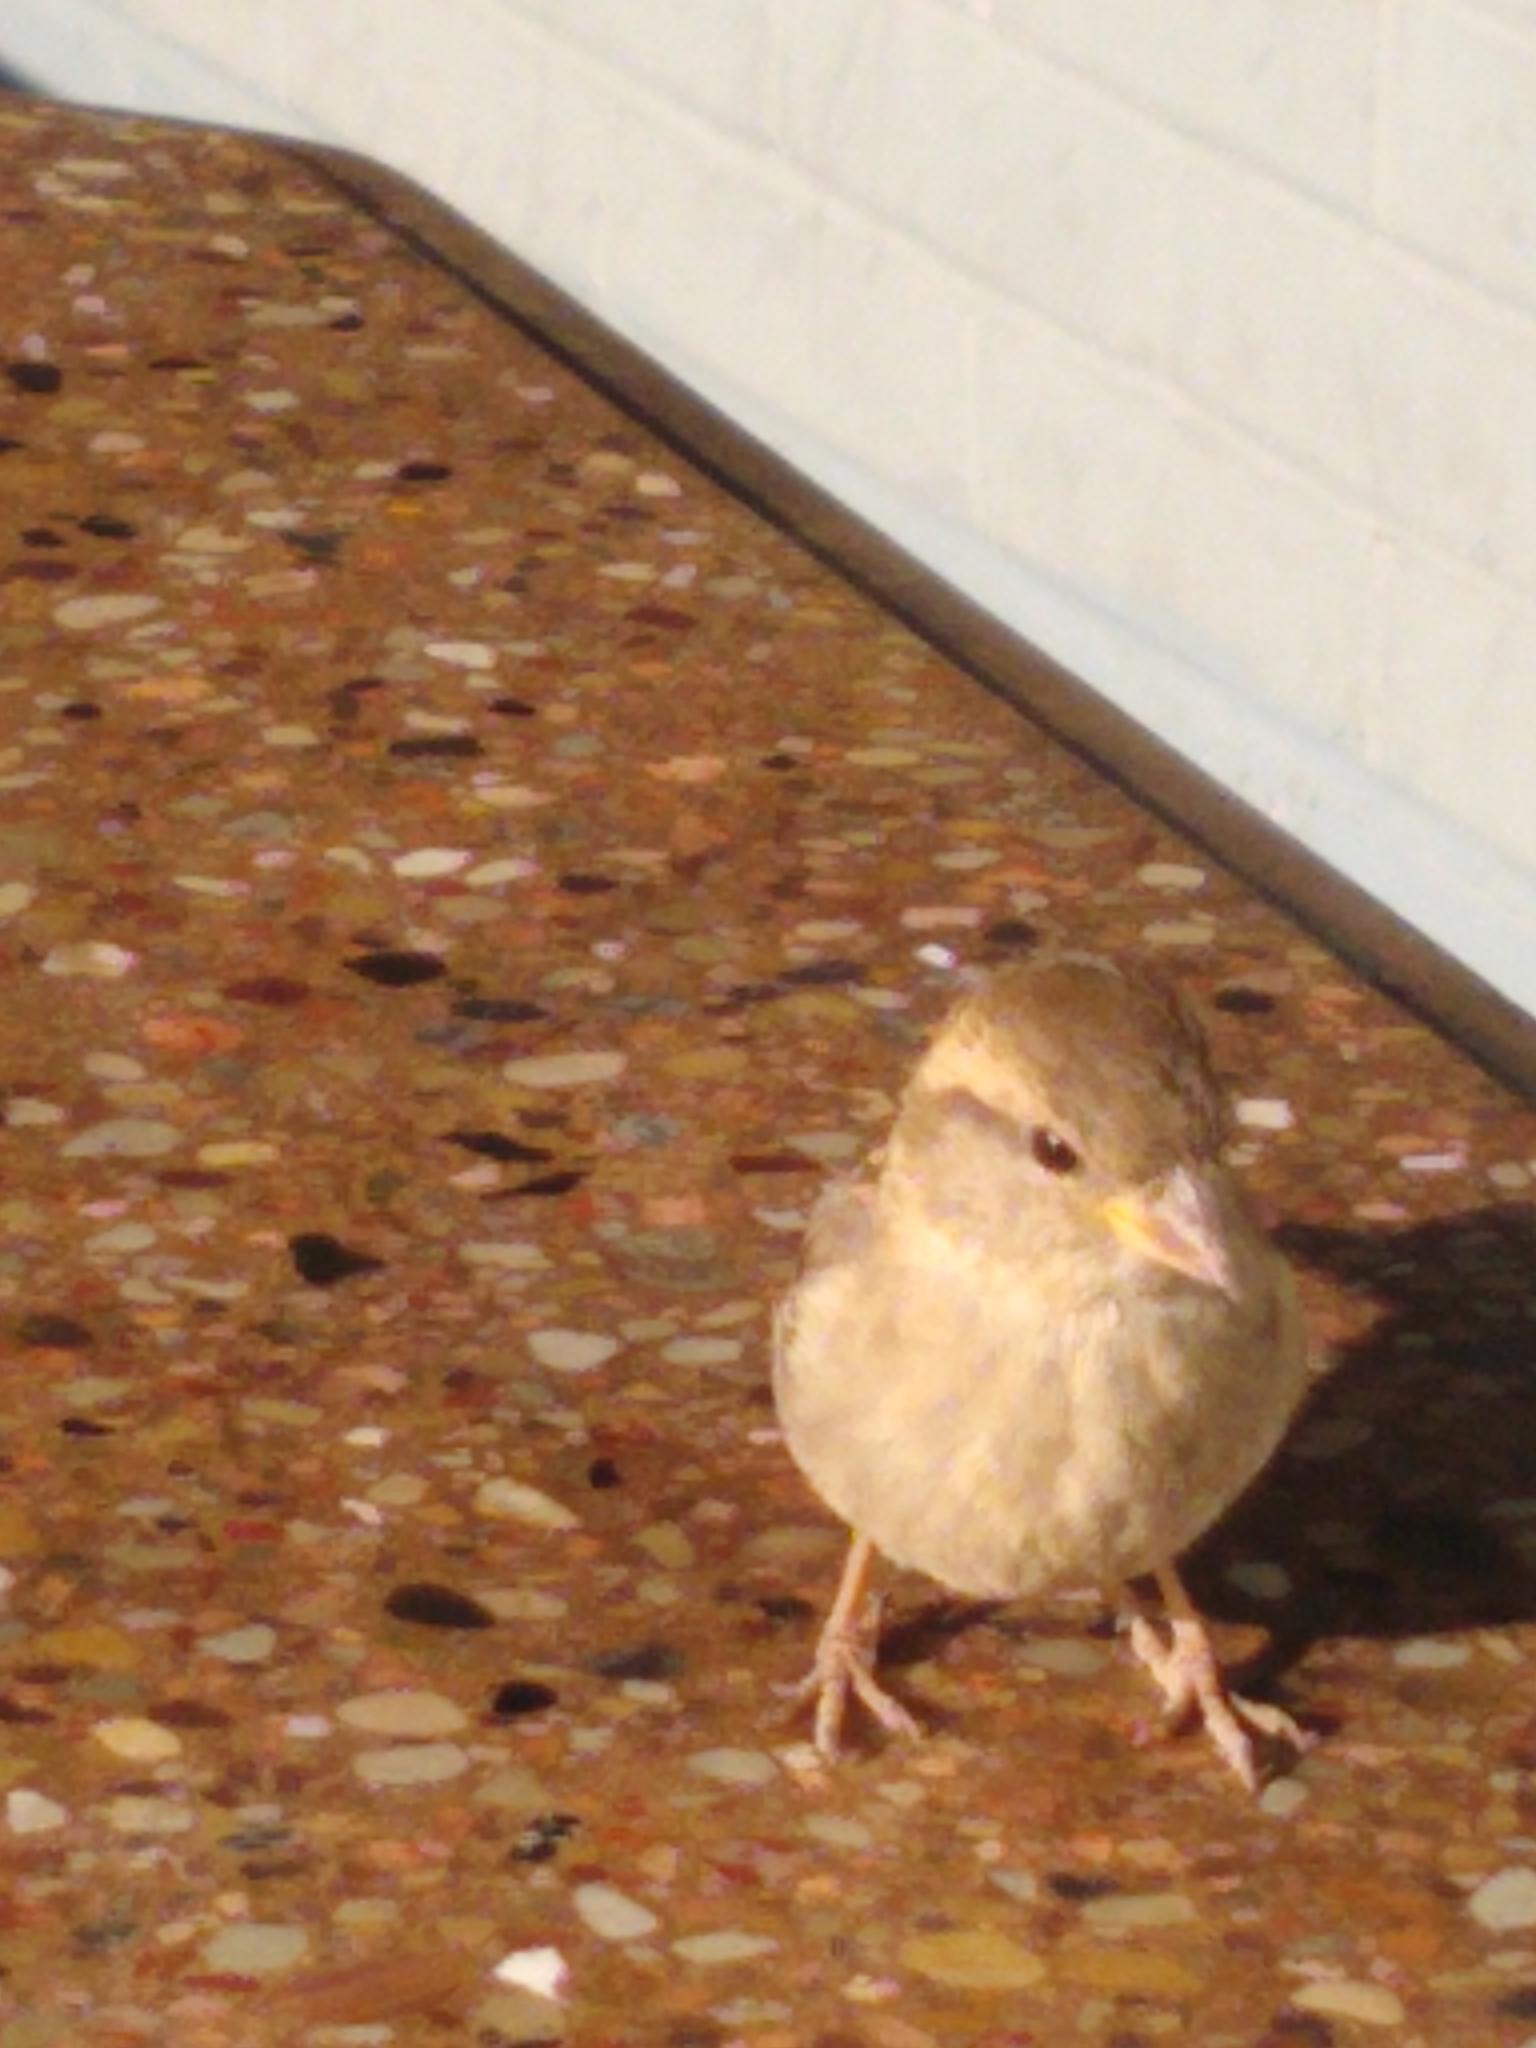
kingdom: Animalia
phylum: Chordata
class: Aves
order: Passeriformes
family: Passeridae
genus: Passer
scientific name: Passer domesticus
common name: House sparrow
